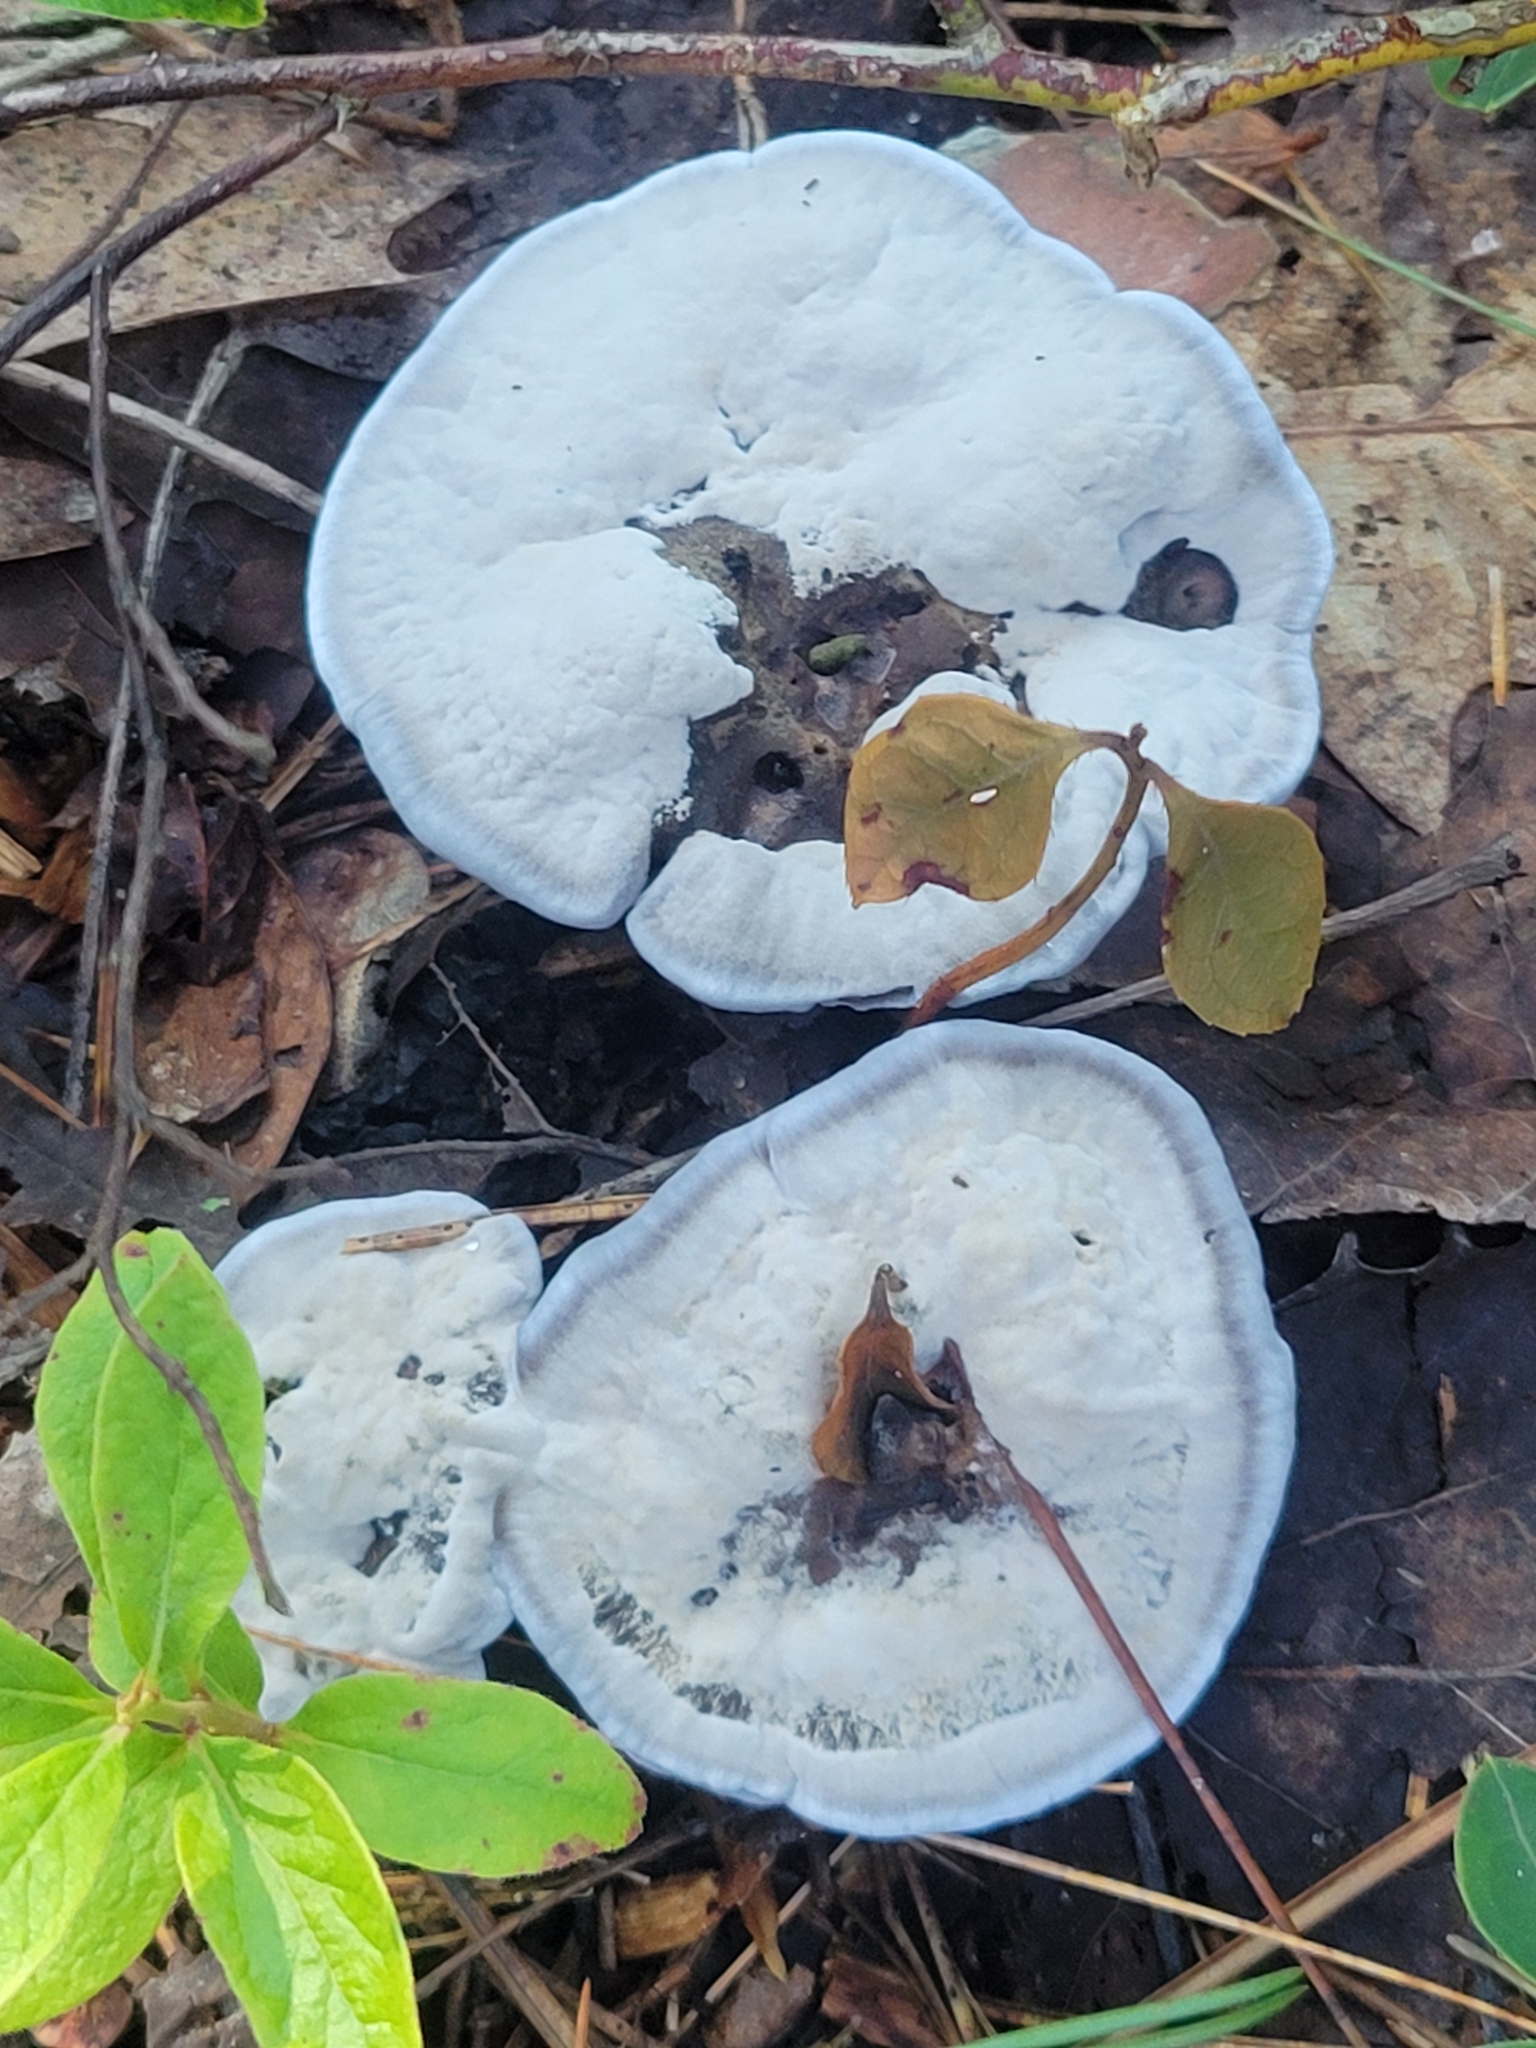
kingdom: Fungi
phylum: Basidiomycota
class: Agaricomycetes
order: Thelephorales
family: Bankeraceae
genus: Hydnellum
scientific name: Hydnellum caeruleum
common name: Blue corky spine fungus
